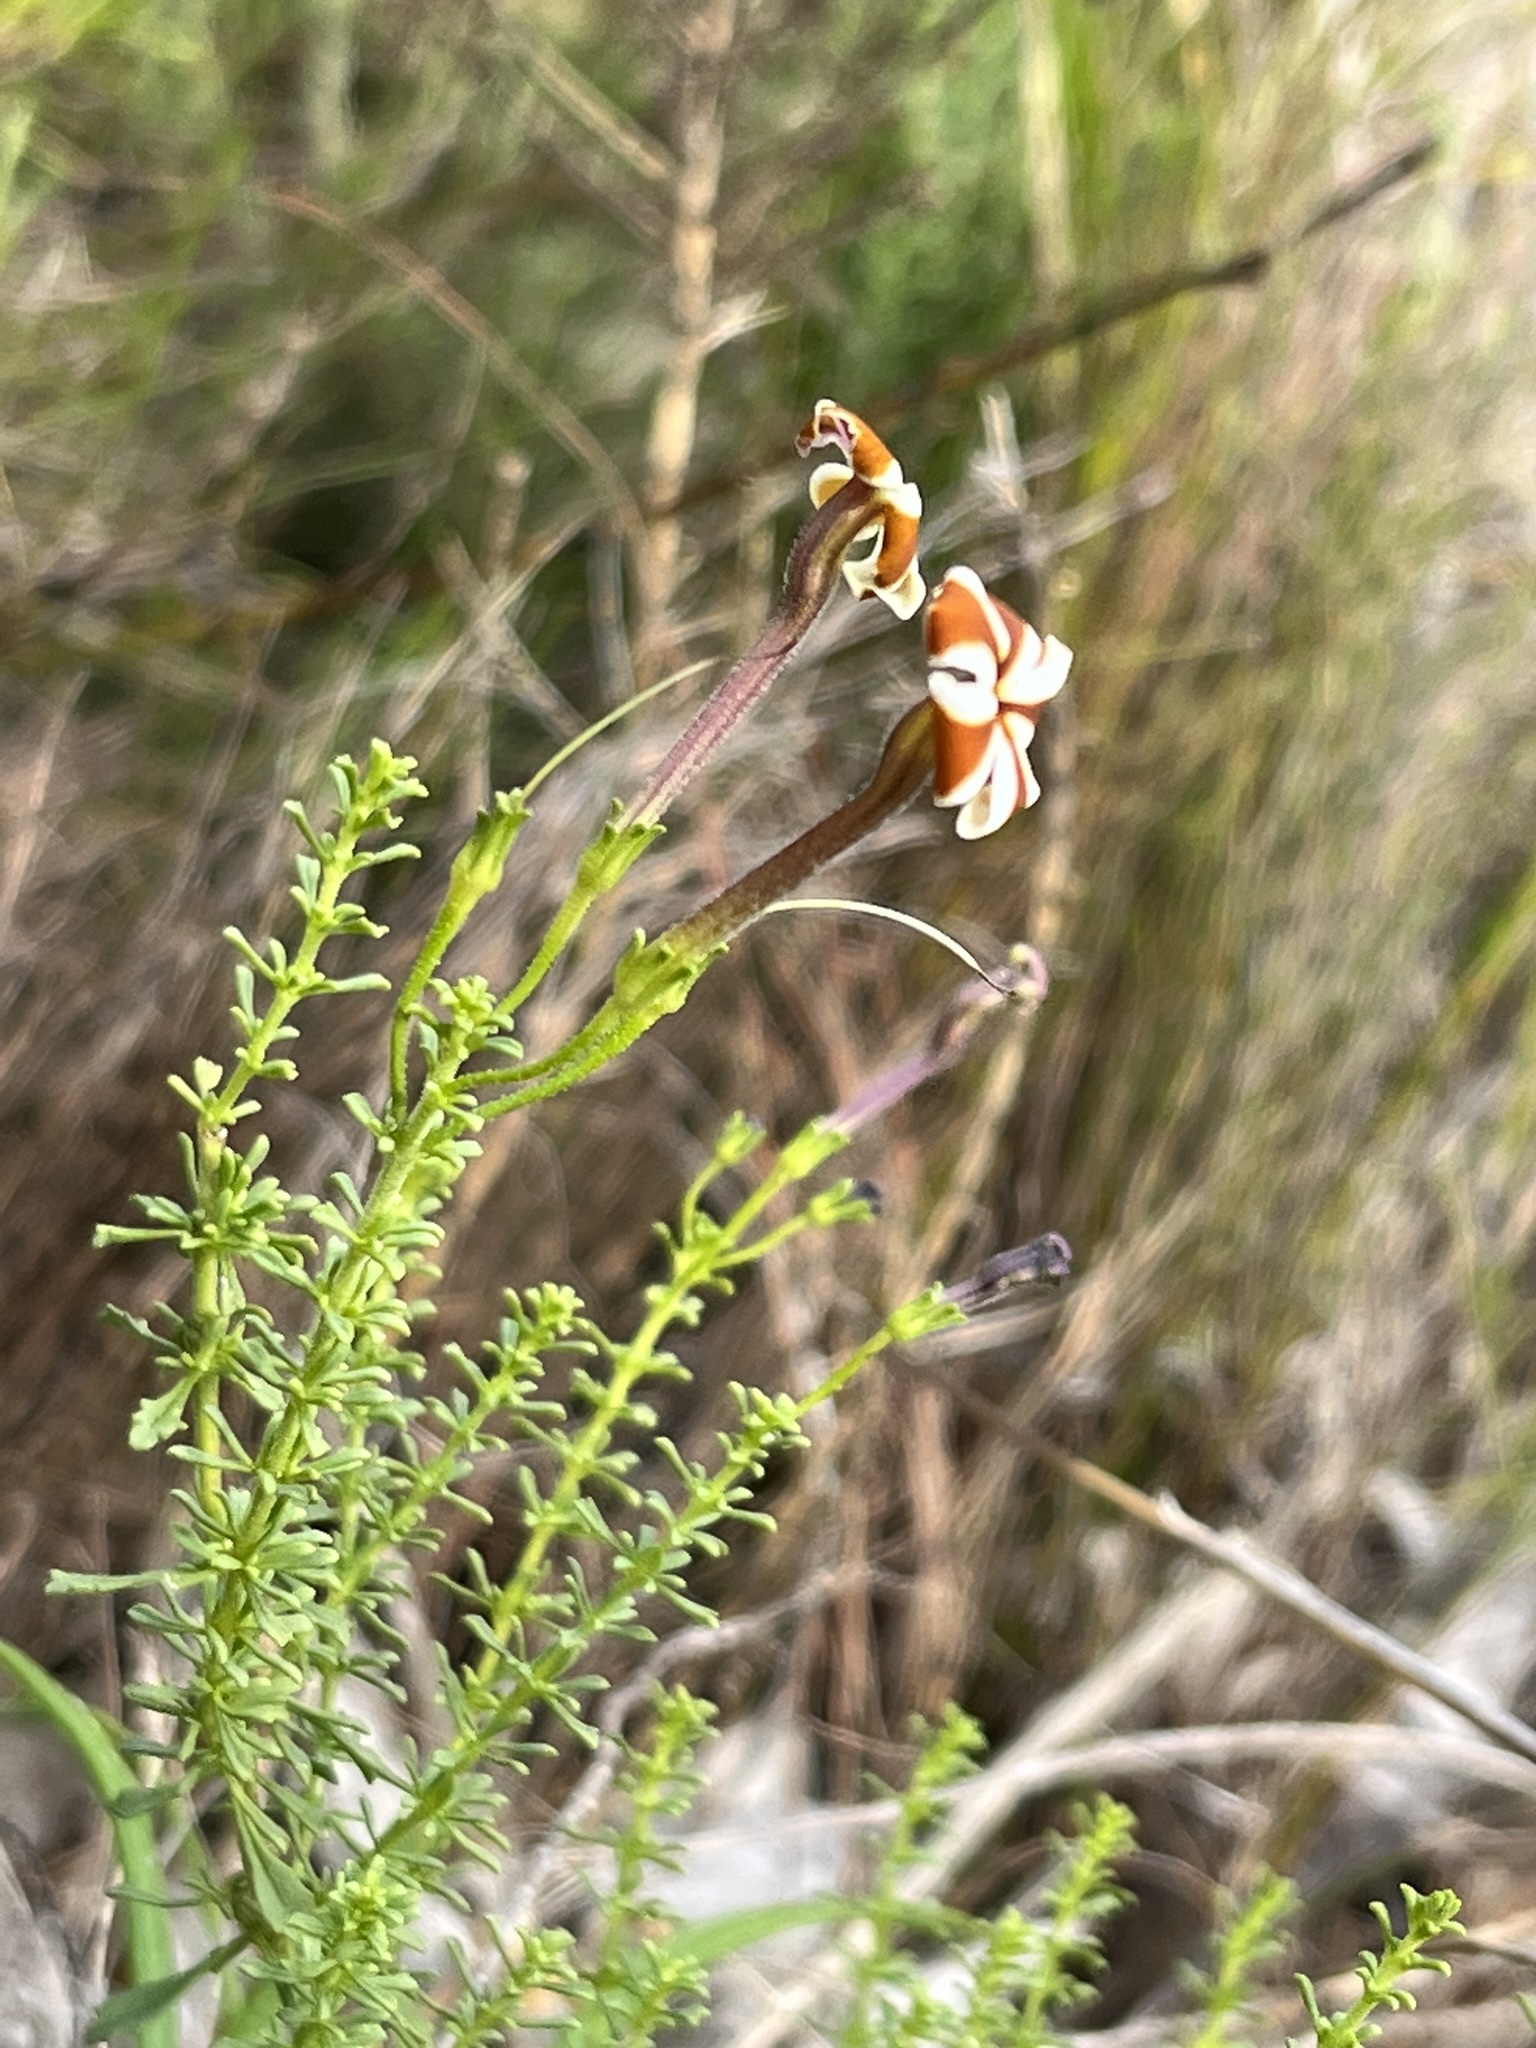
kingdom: Plantae
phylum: Tracheophyta
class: Magnoliopsida
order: Lamiales
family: Scrophulariaceae
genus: Jamesbrittenia
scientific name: Jamesbrittenia albomarginata
